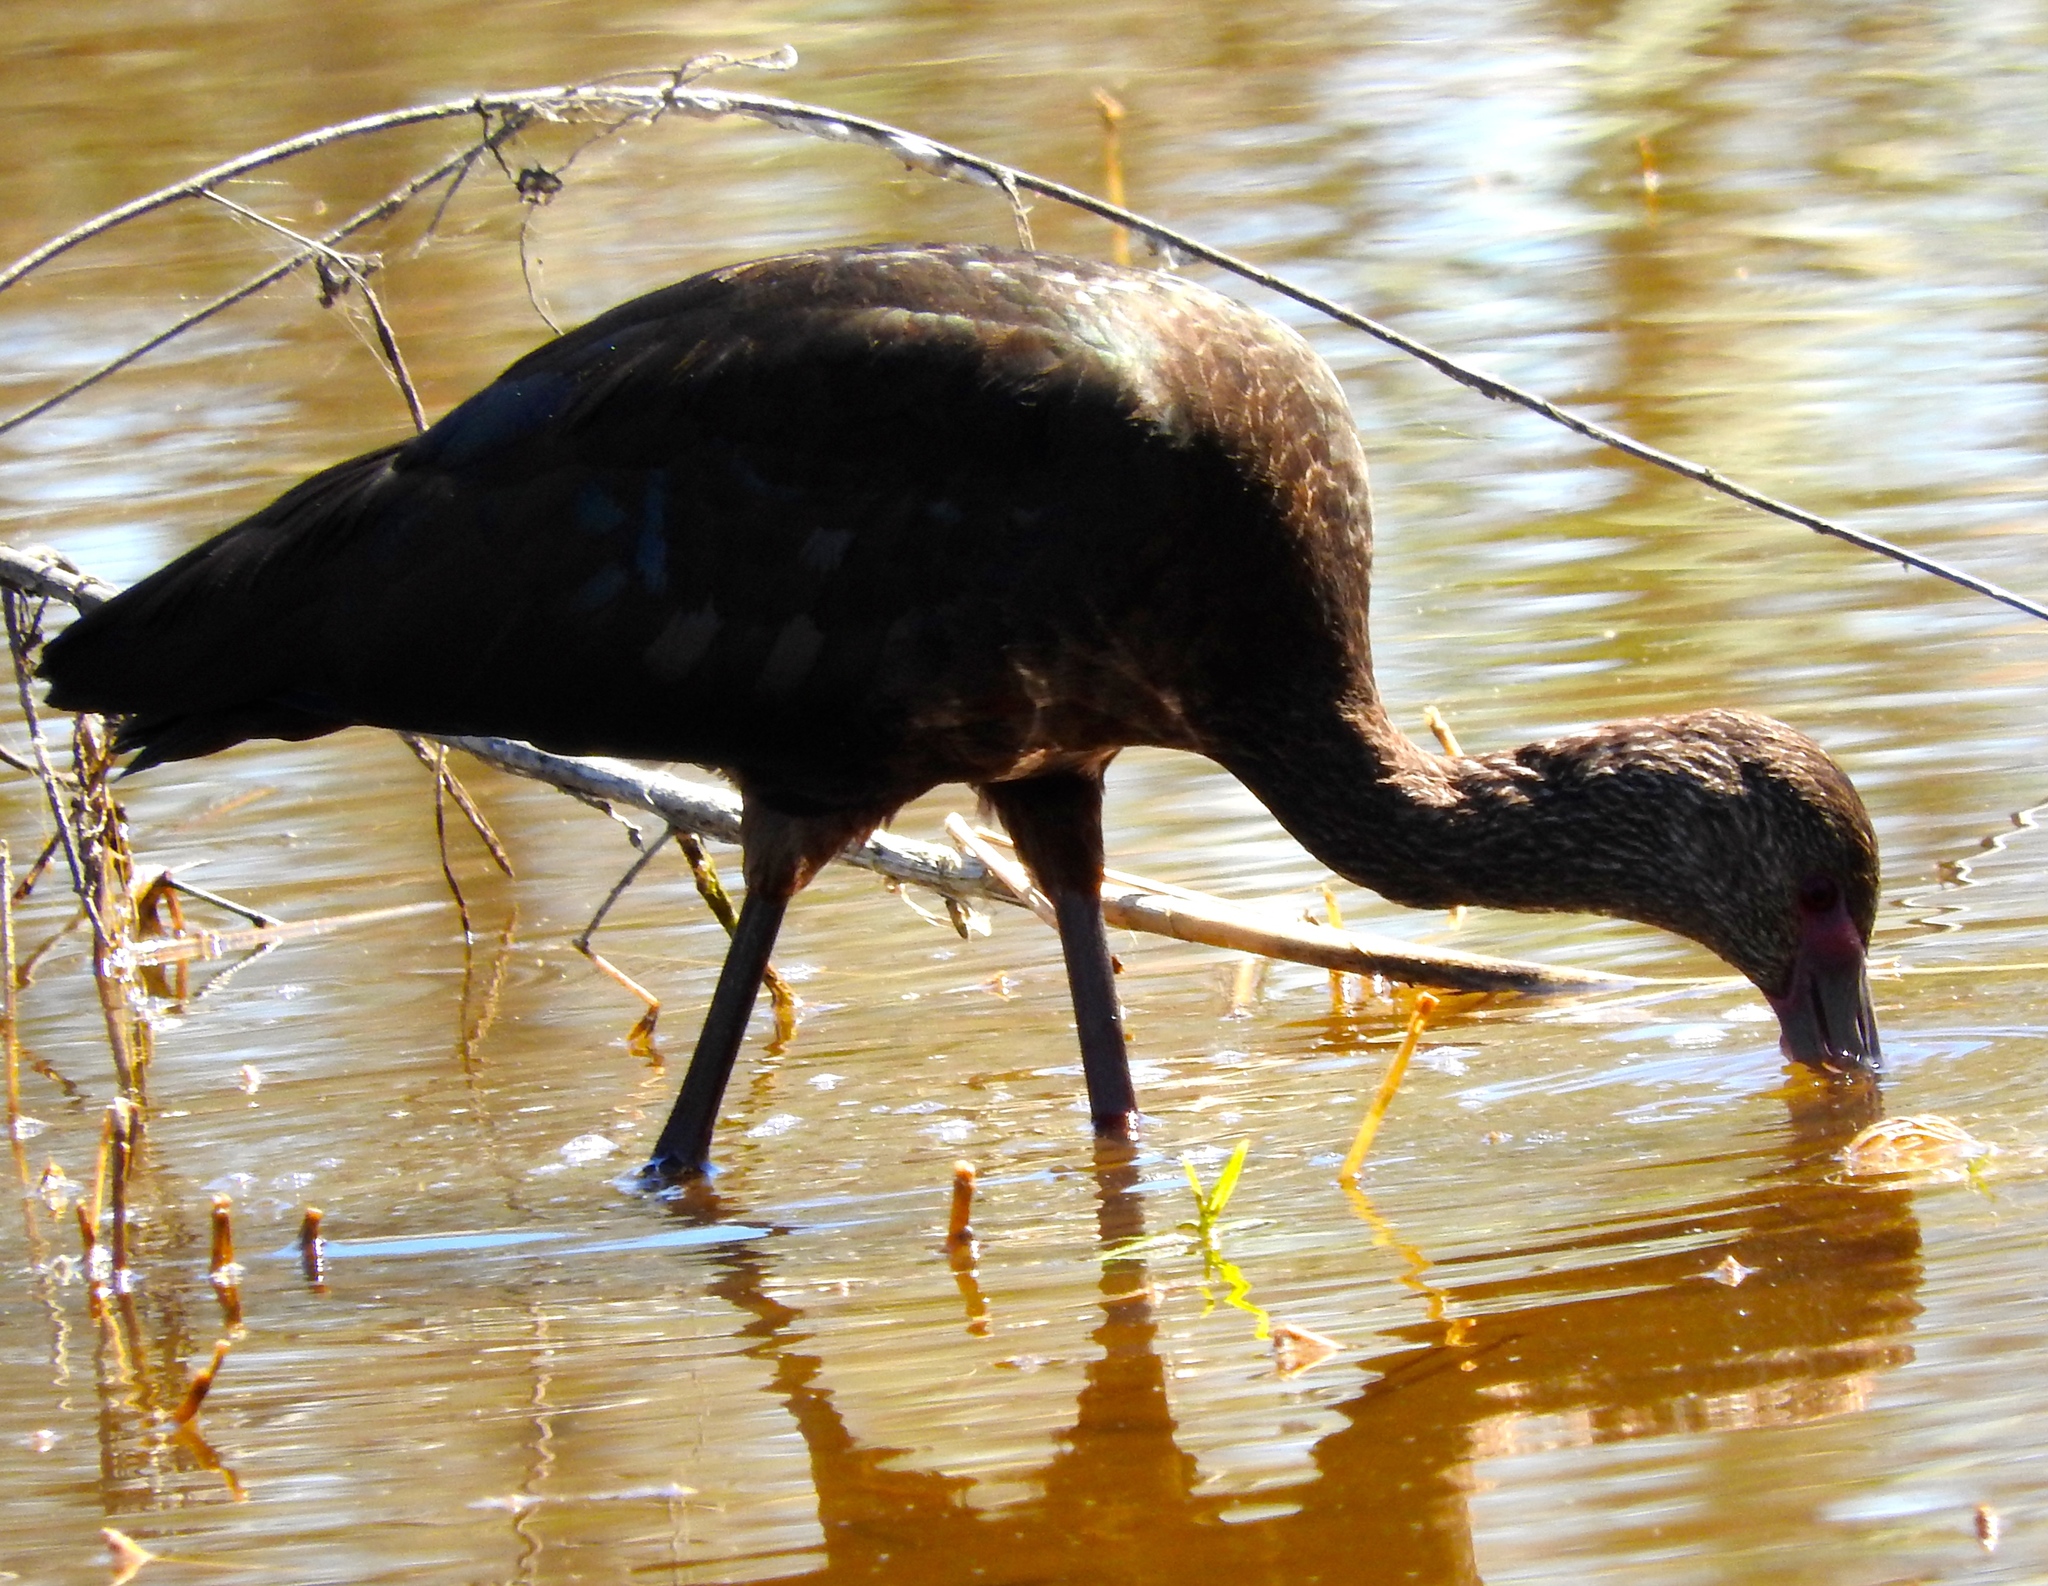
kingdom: Animalia
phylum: Chordata
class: Aves
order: Pelecaniformes
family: Threskiornithidae
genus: Plegadis
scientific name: Plegadis chihi
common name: White-faced ibis
